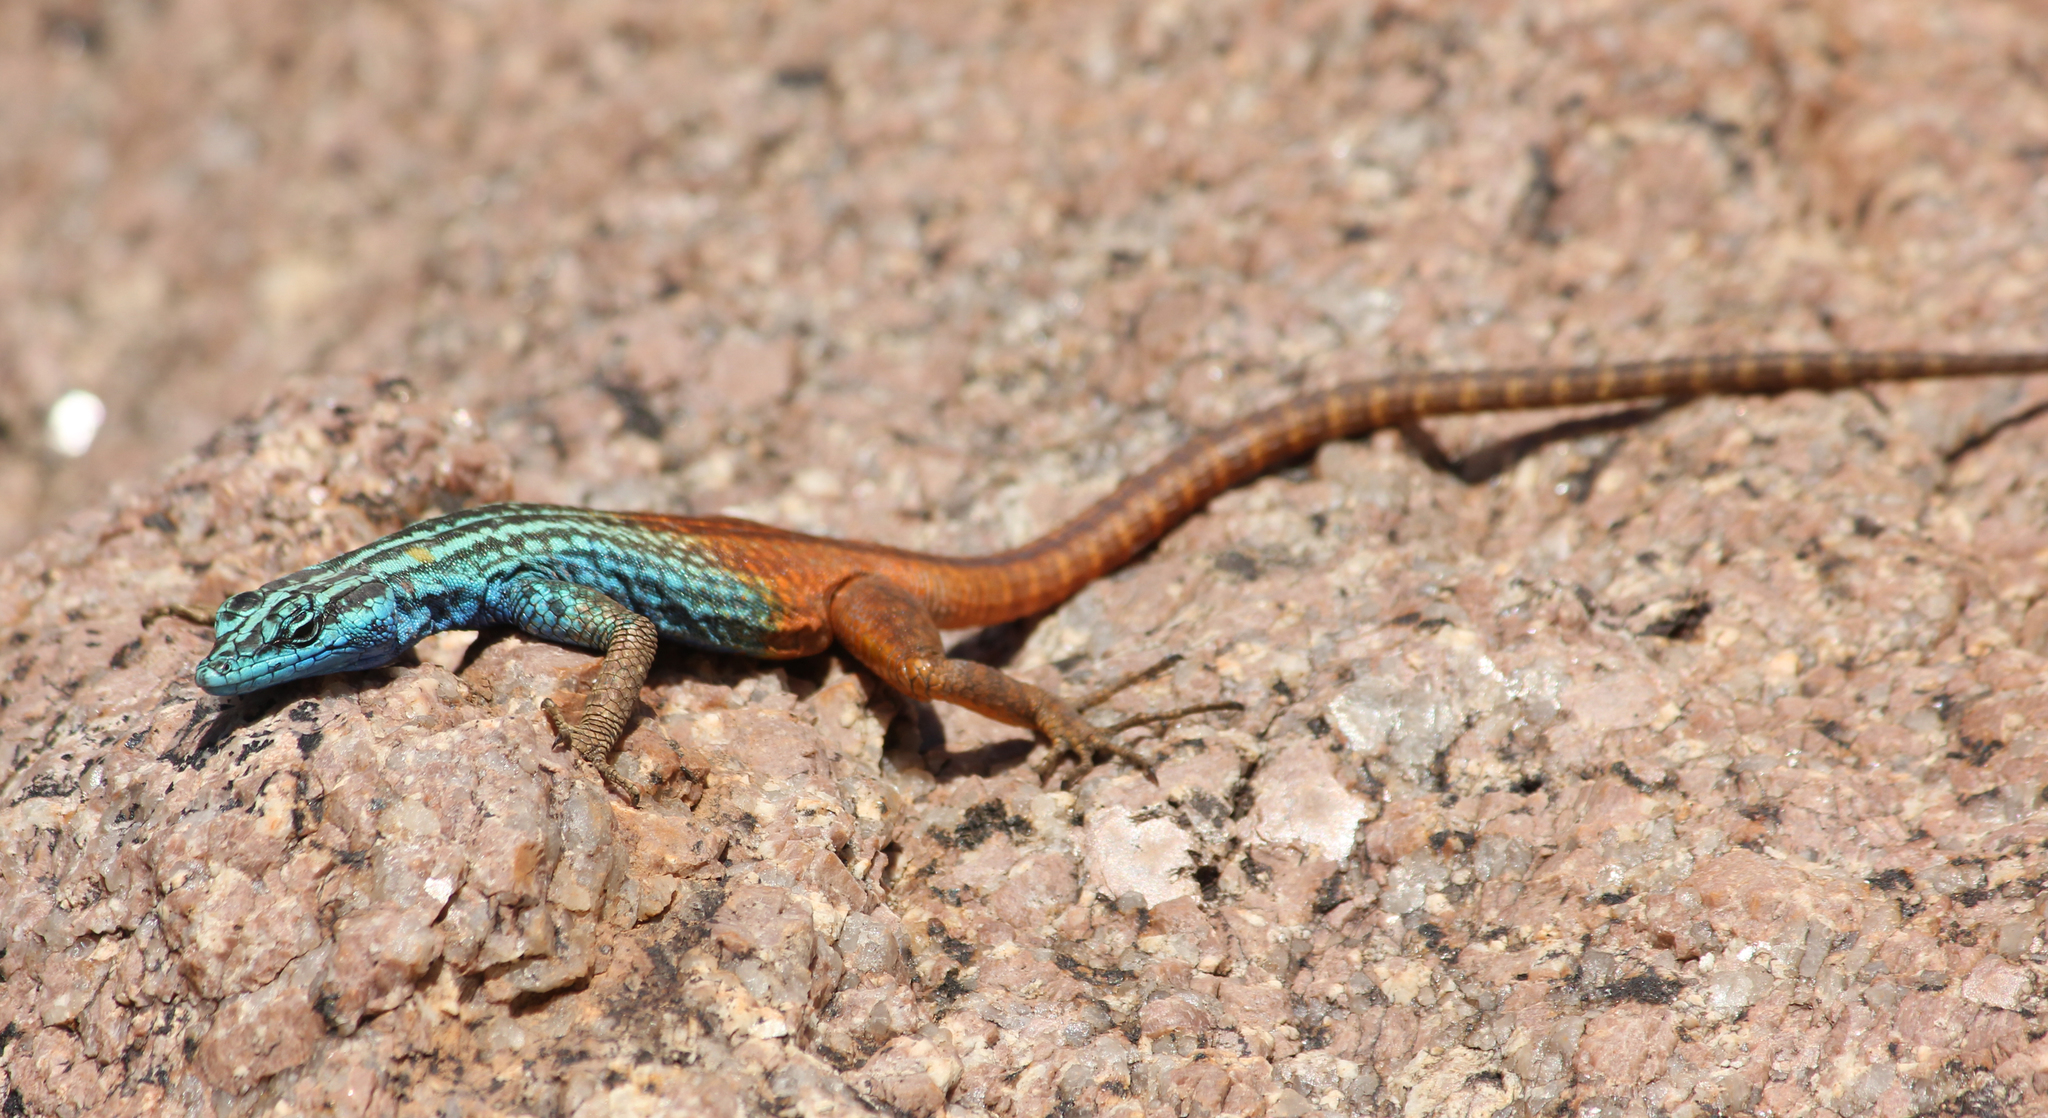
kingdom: Animalia
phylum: Chordata
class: Squamata
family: Cordylidae
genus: Platysaurus
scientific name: Platysaurus attenboroughi
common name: Attenborough’s flat lizard
